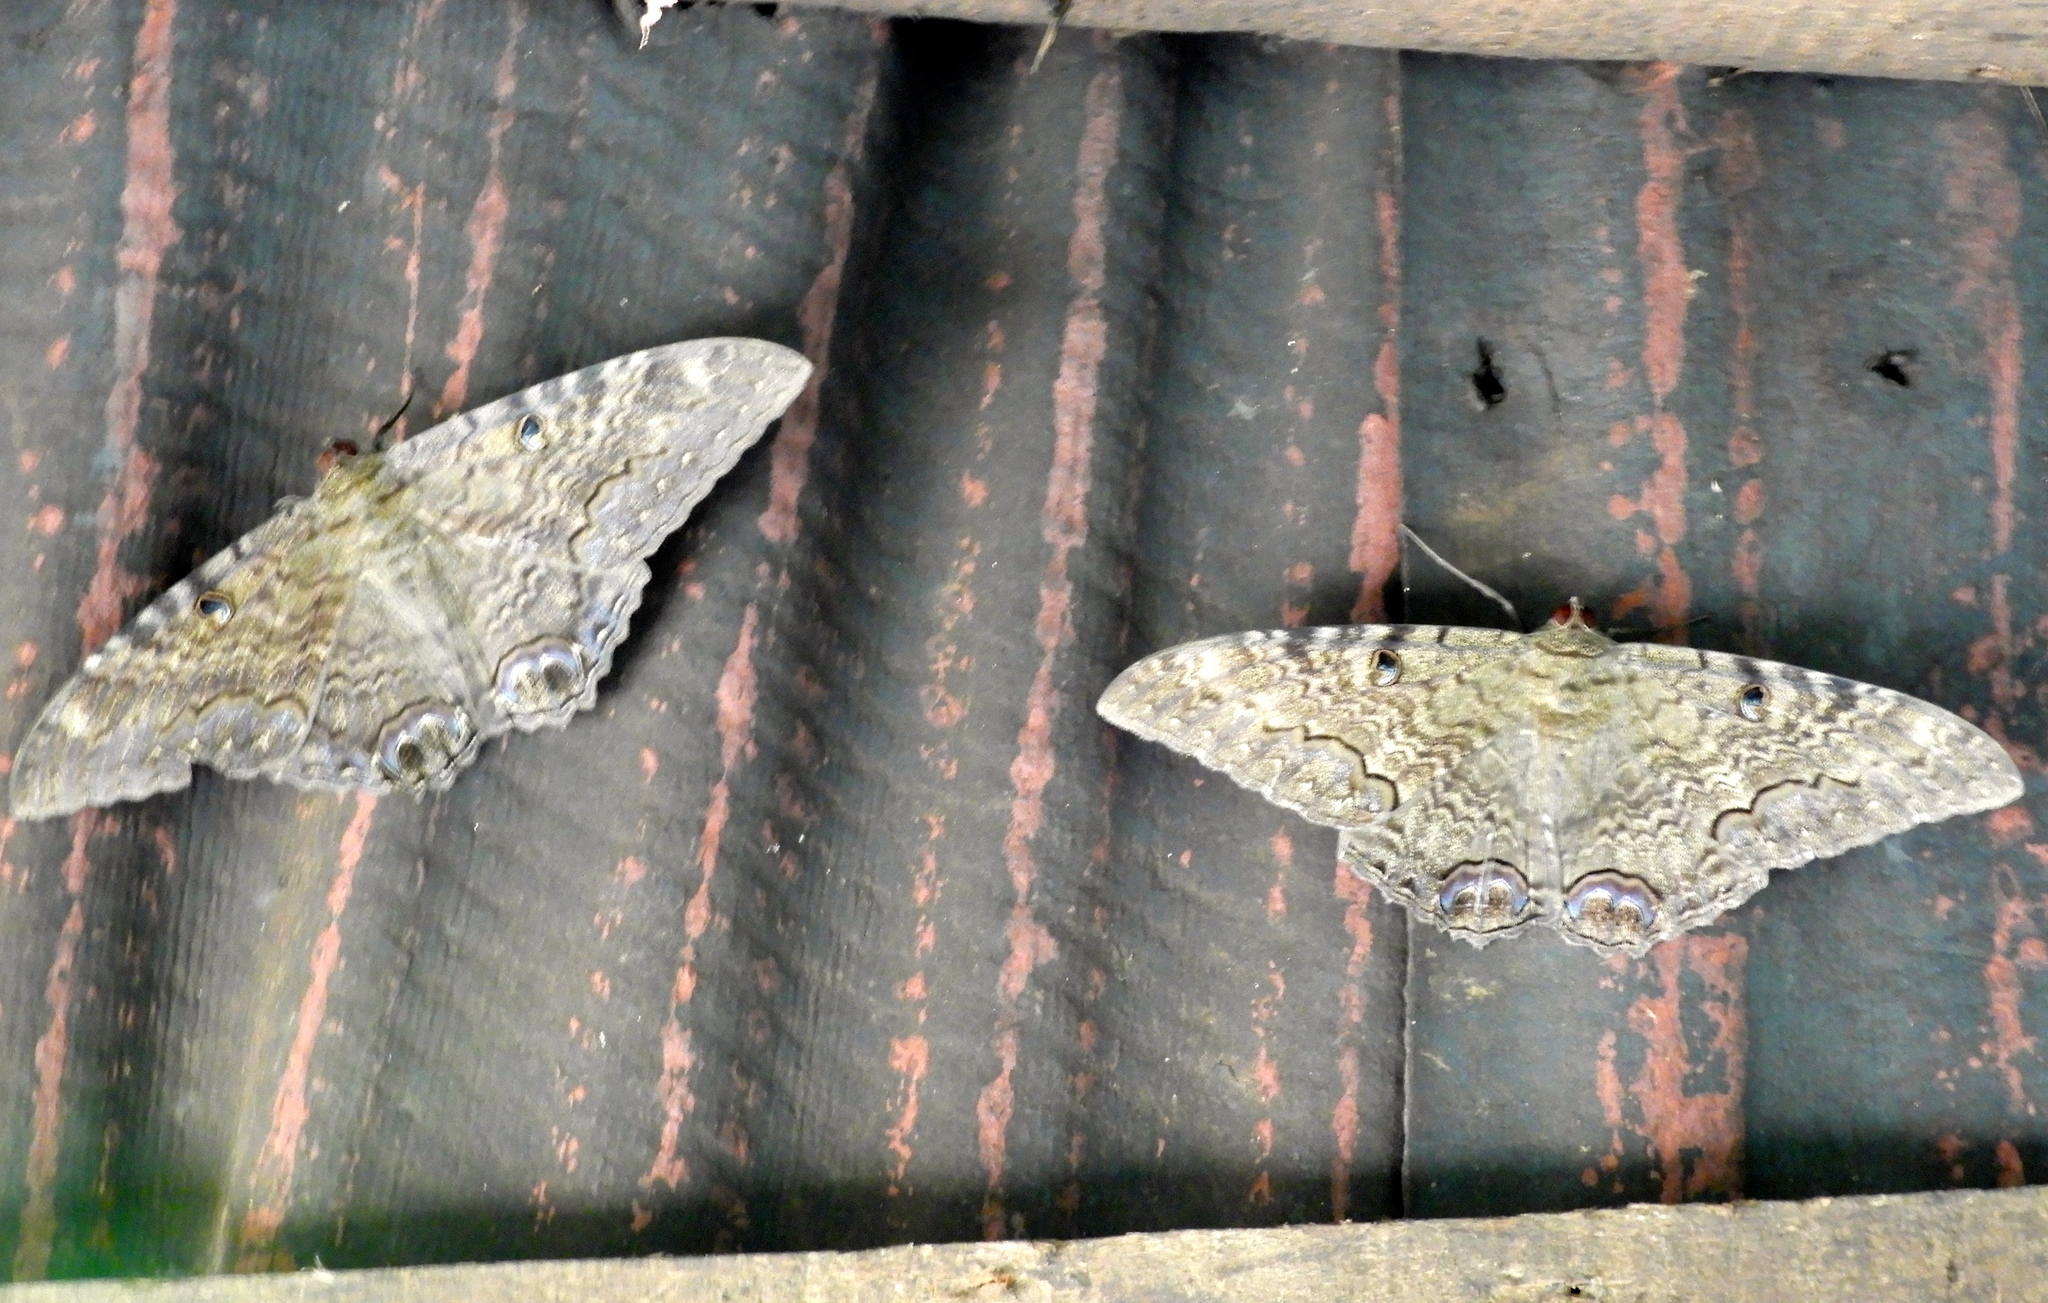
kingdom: Animalia
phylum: Arthropoda
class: Insecta
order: Lepidoptera
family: Erebidae
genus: Ascalapha
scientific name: Ascalapha odorata
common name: Black witch
